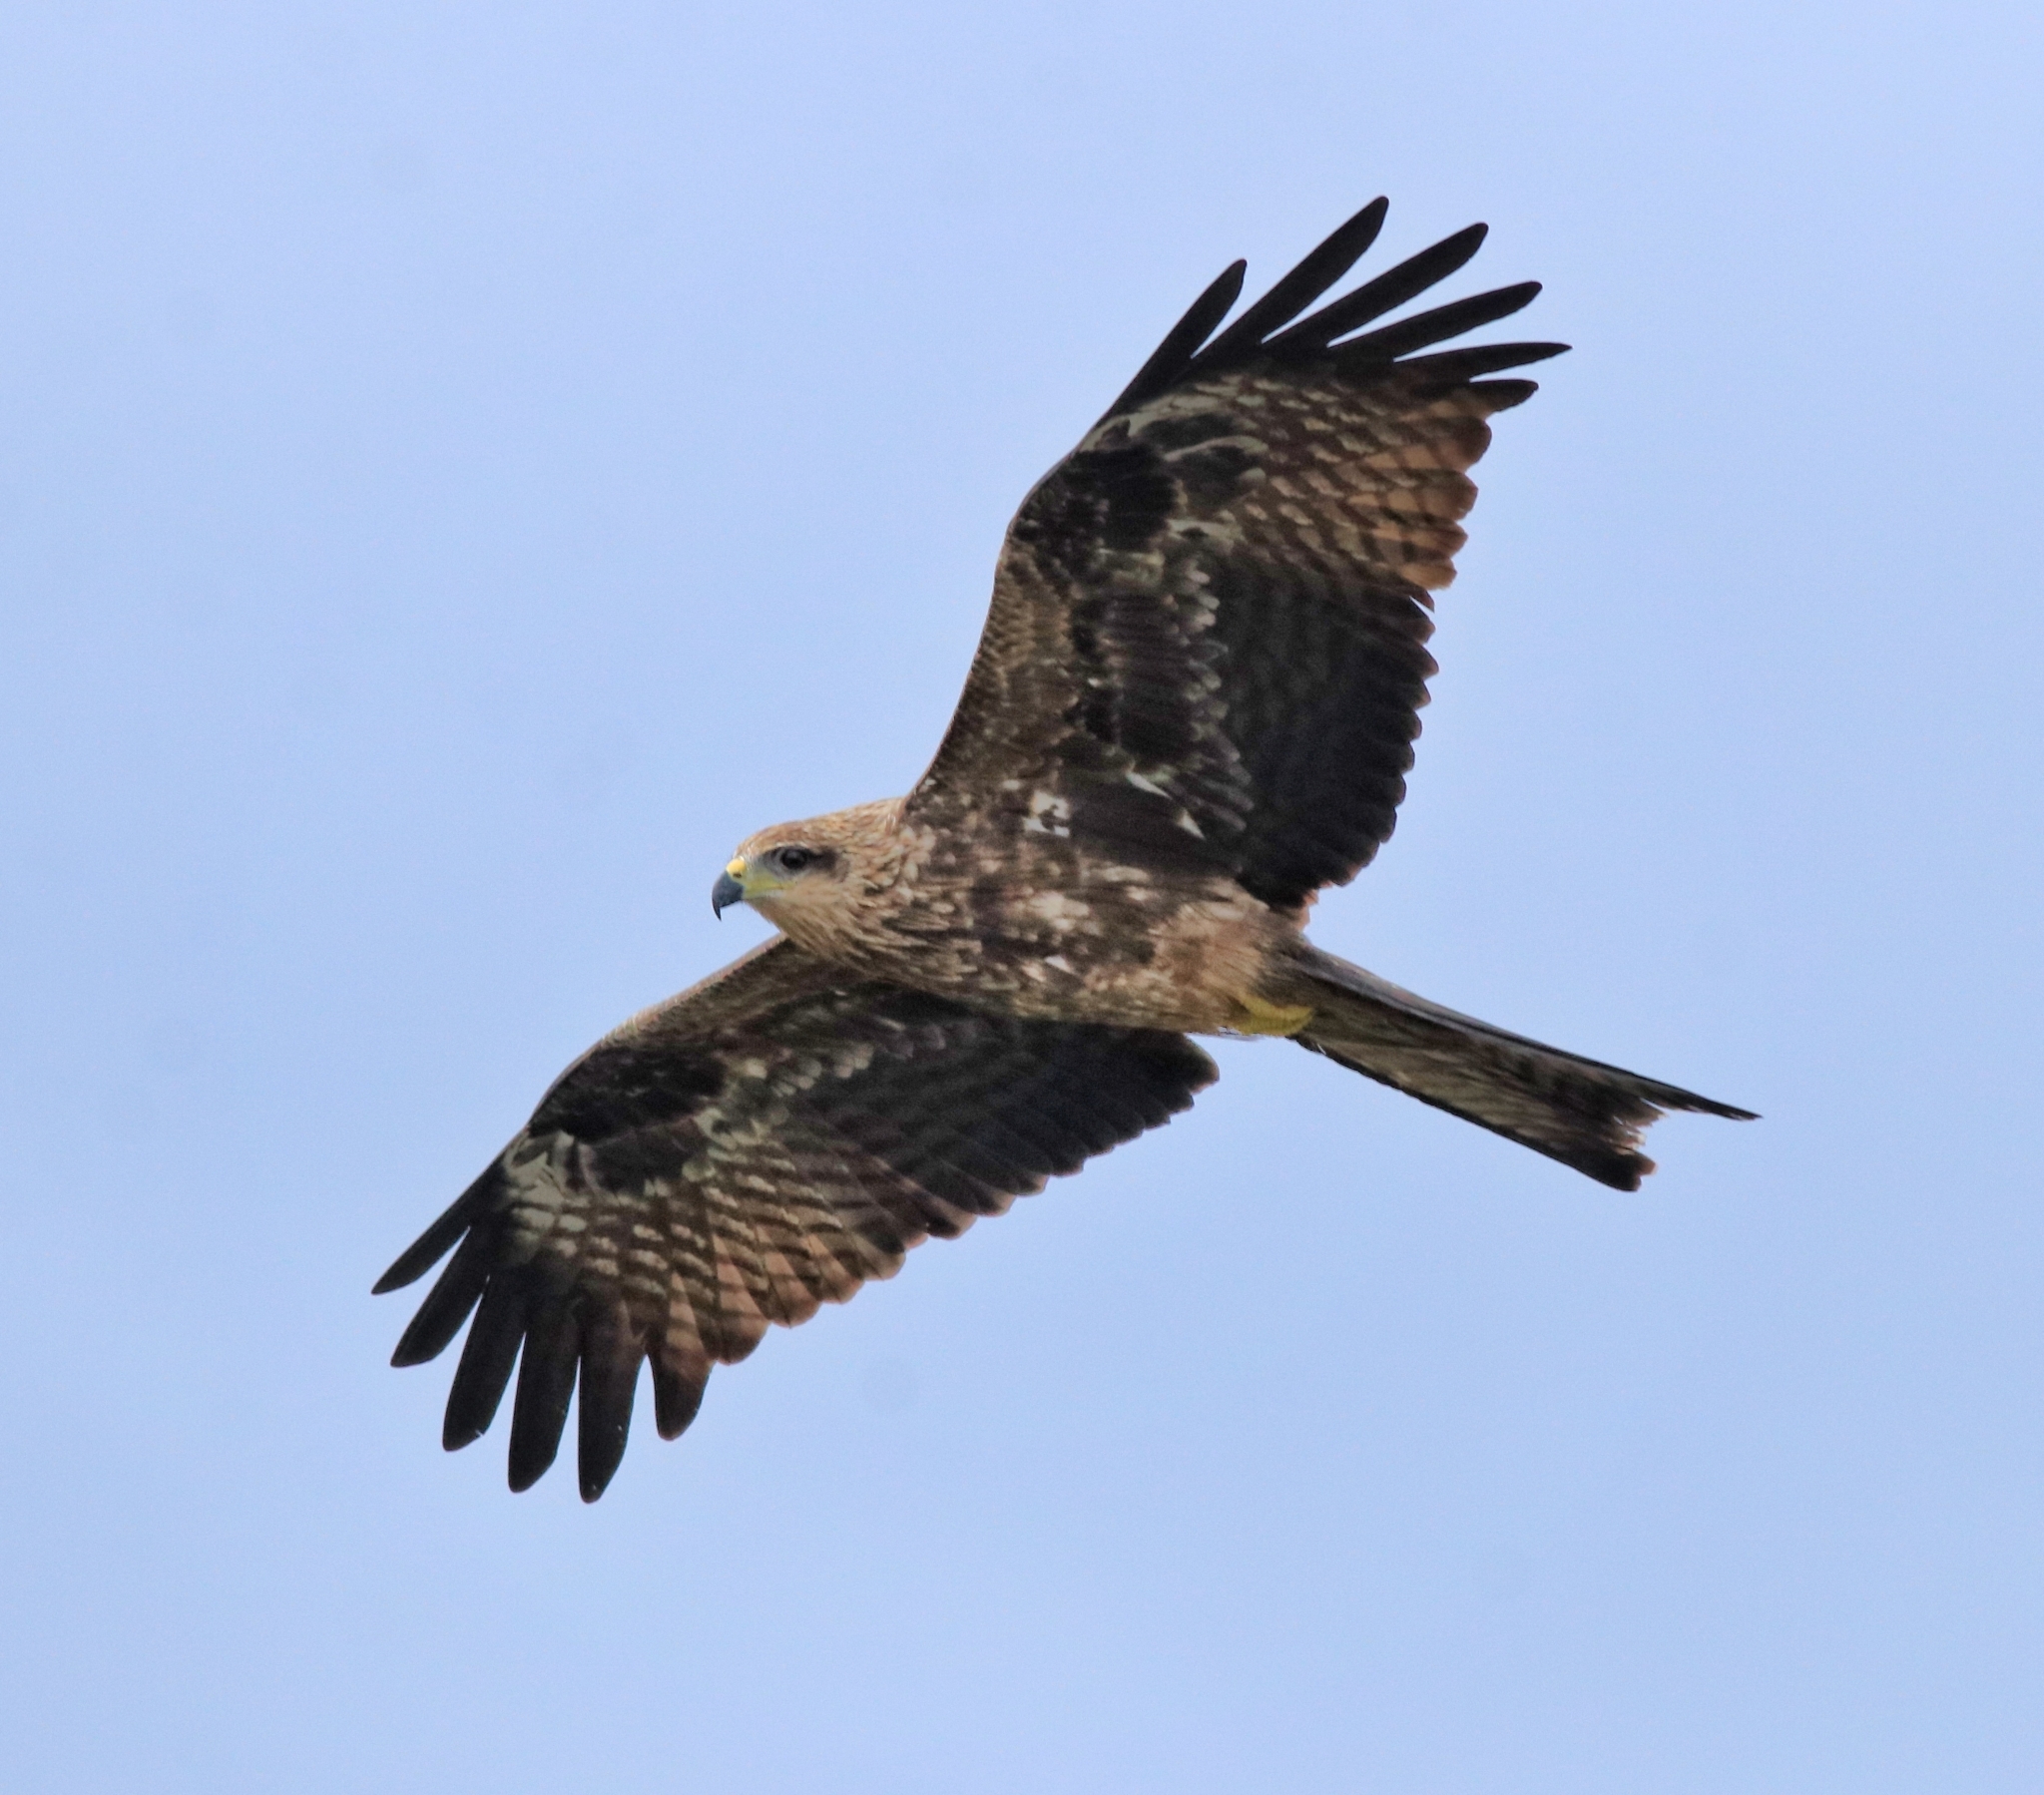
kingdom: Animalia
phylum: Chordata
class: Aves
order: Accipitriformes
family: Accipitridae
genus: Milvus
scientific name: Milvus migrans
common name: Black kite
